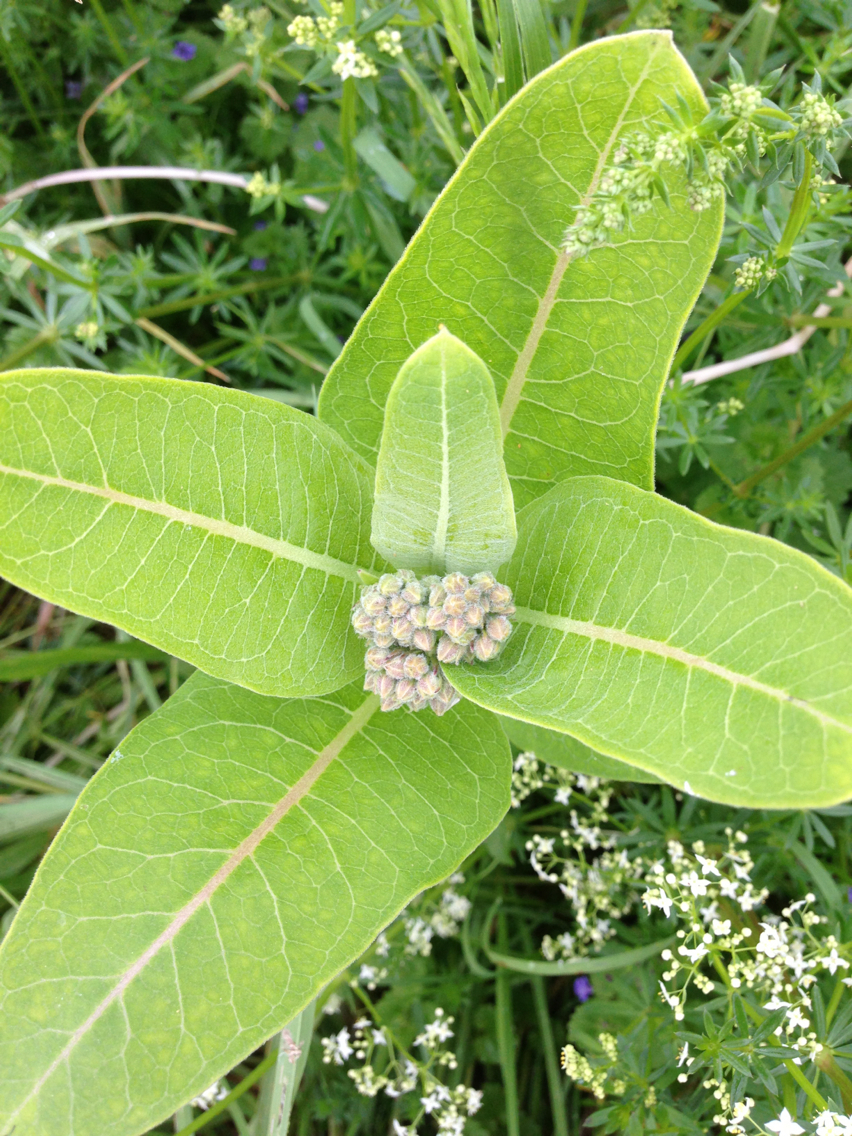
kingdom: Plantae
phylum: Tracheophyta
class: Magnoliopsida
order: Gentianales
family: Apocynaceae
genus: Asclepias
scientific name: Asclepias syriaca
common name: Common milkweed
